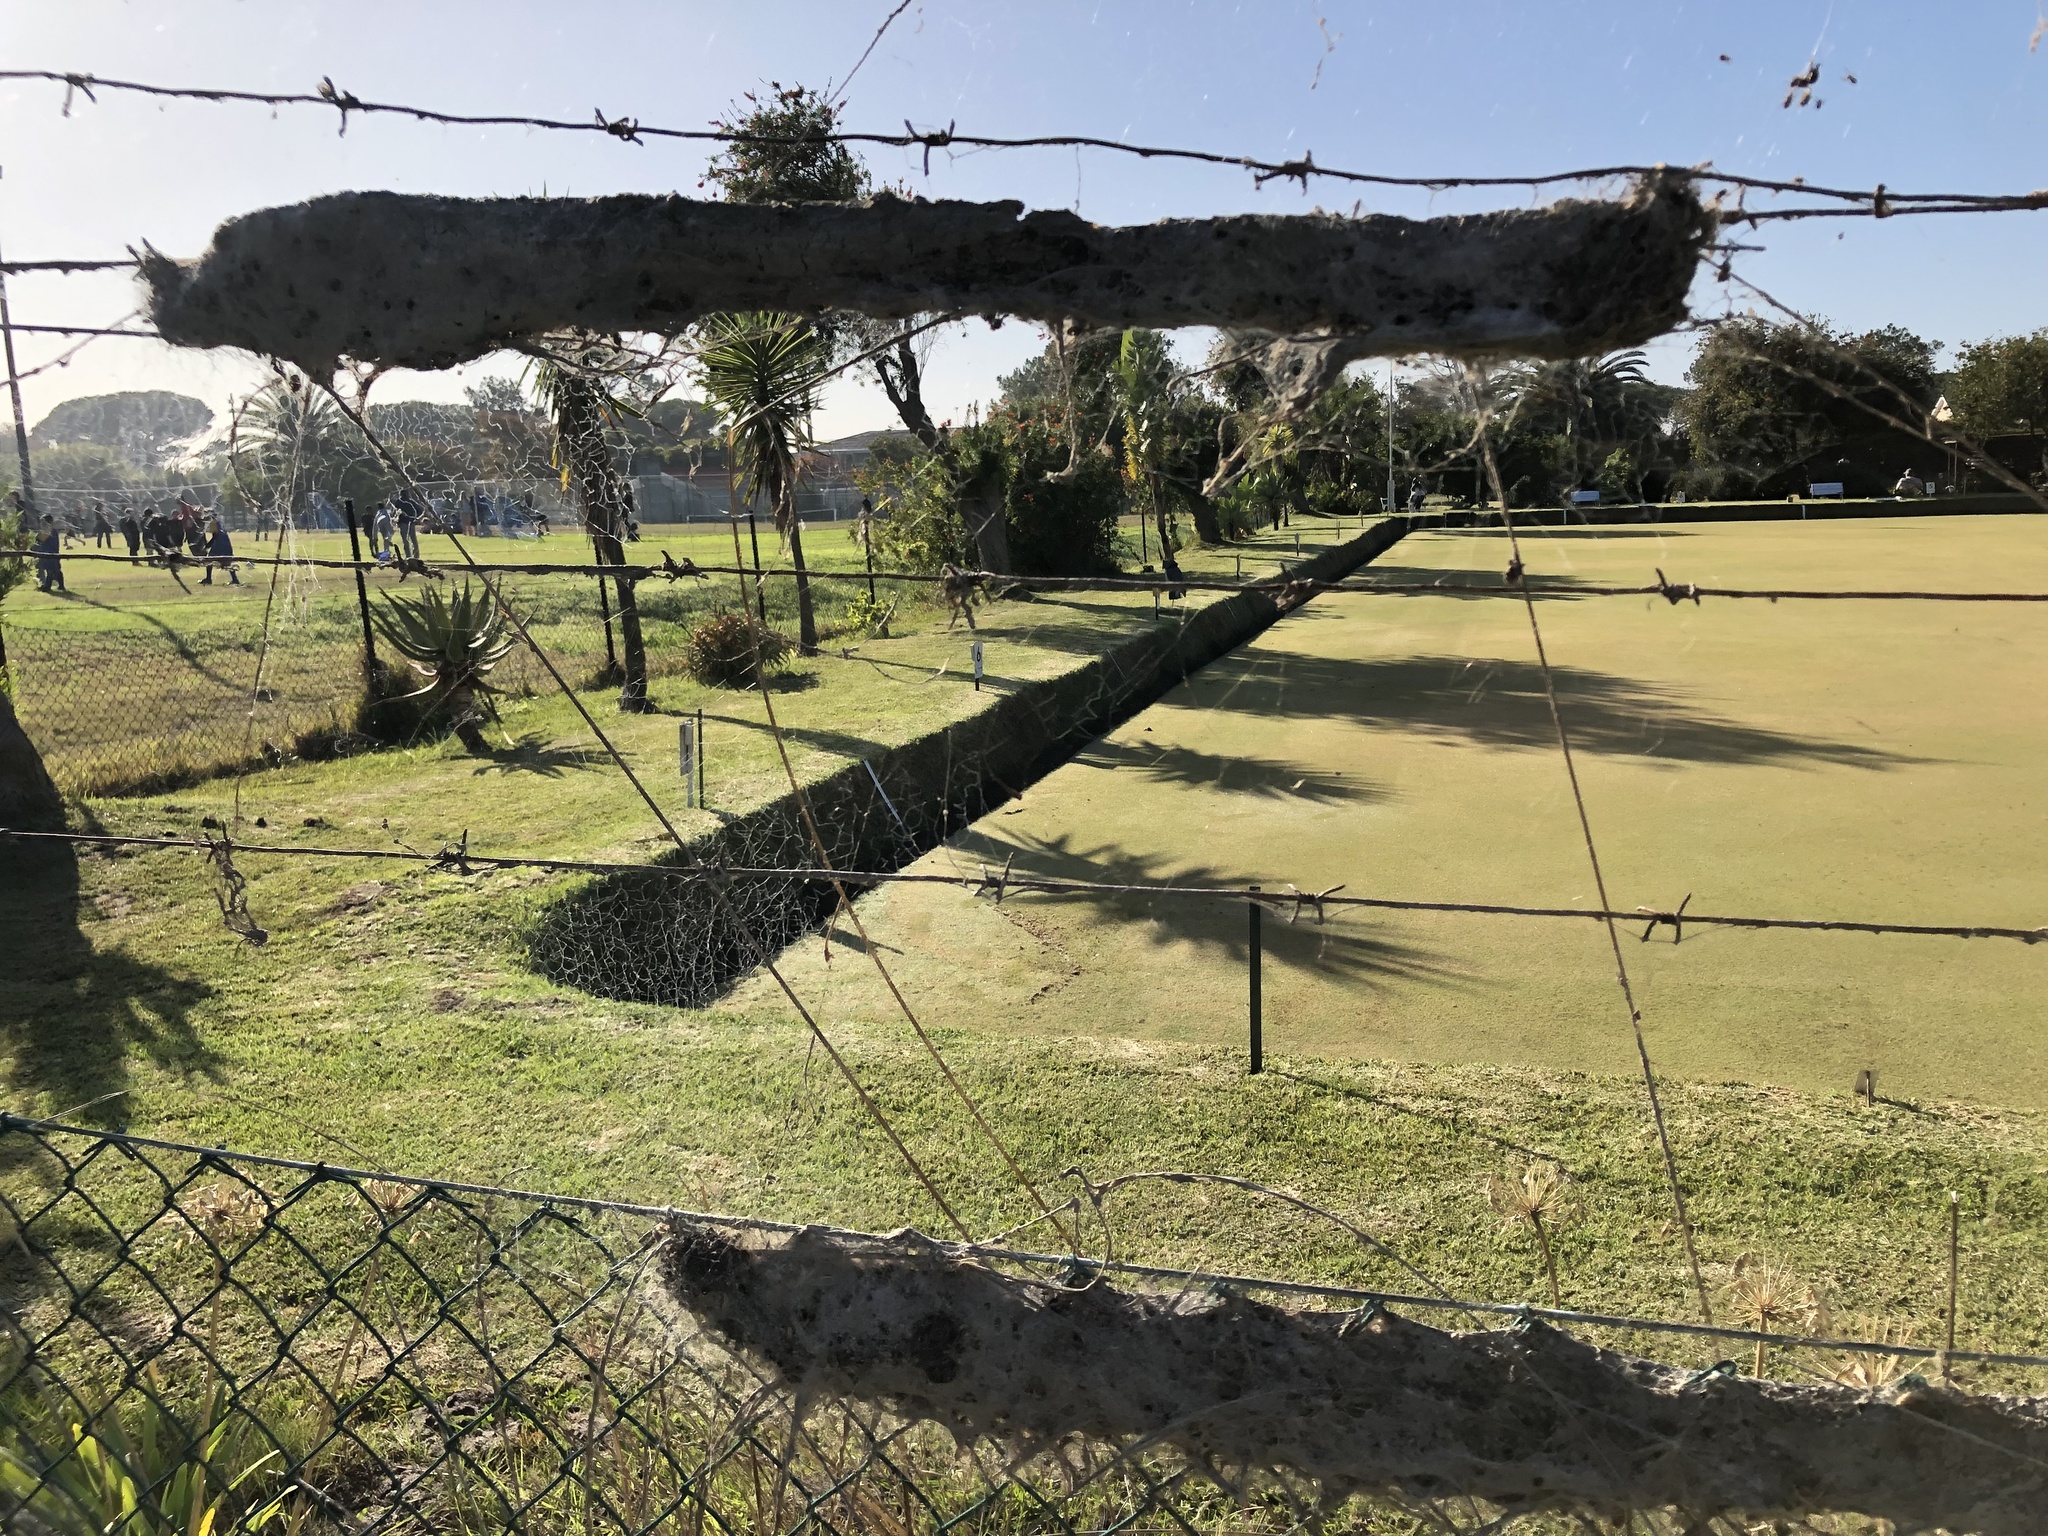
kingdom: Animalia
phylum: Arthropoda
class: Arachnida
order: Araneae
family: Eresidae
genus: Stegodyphus
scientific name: Stegodyphus dumicola
